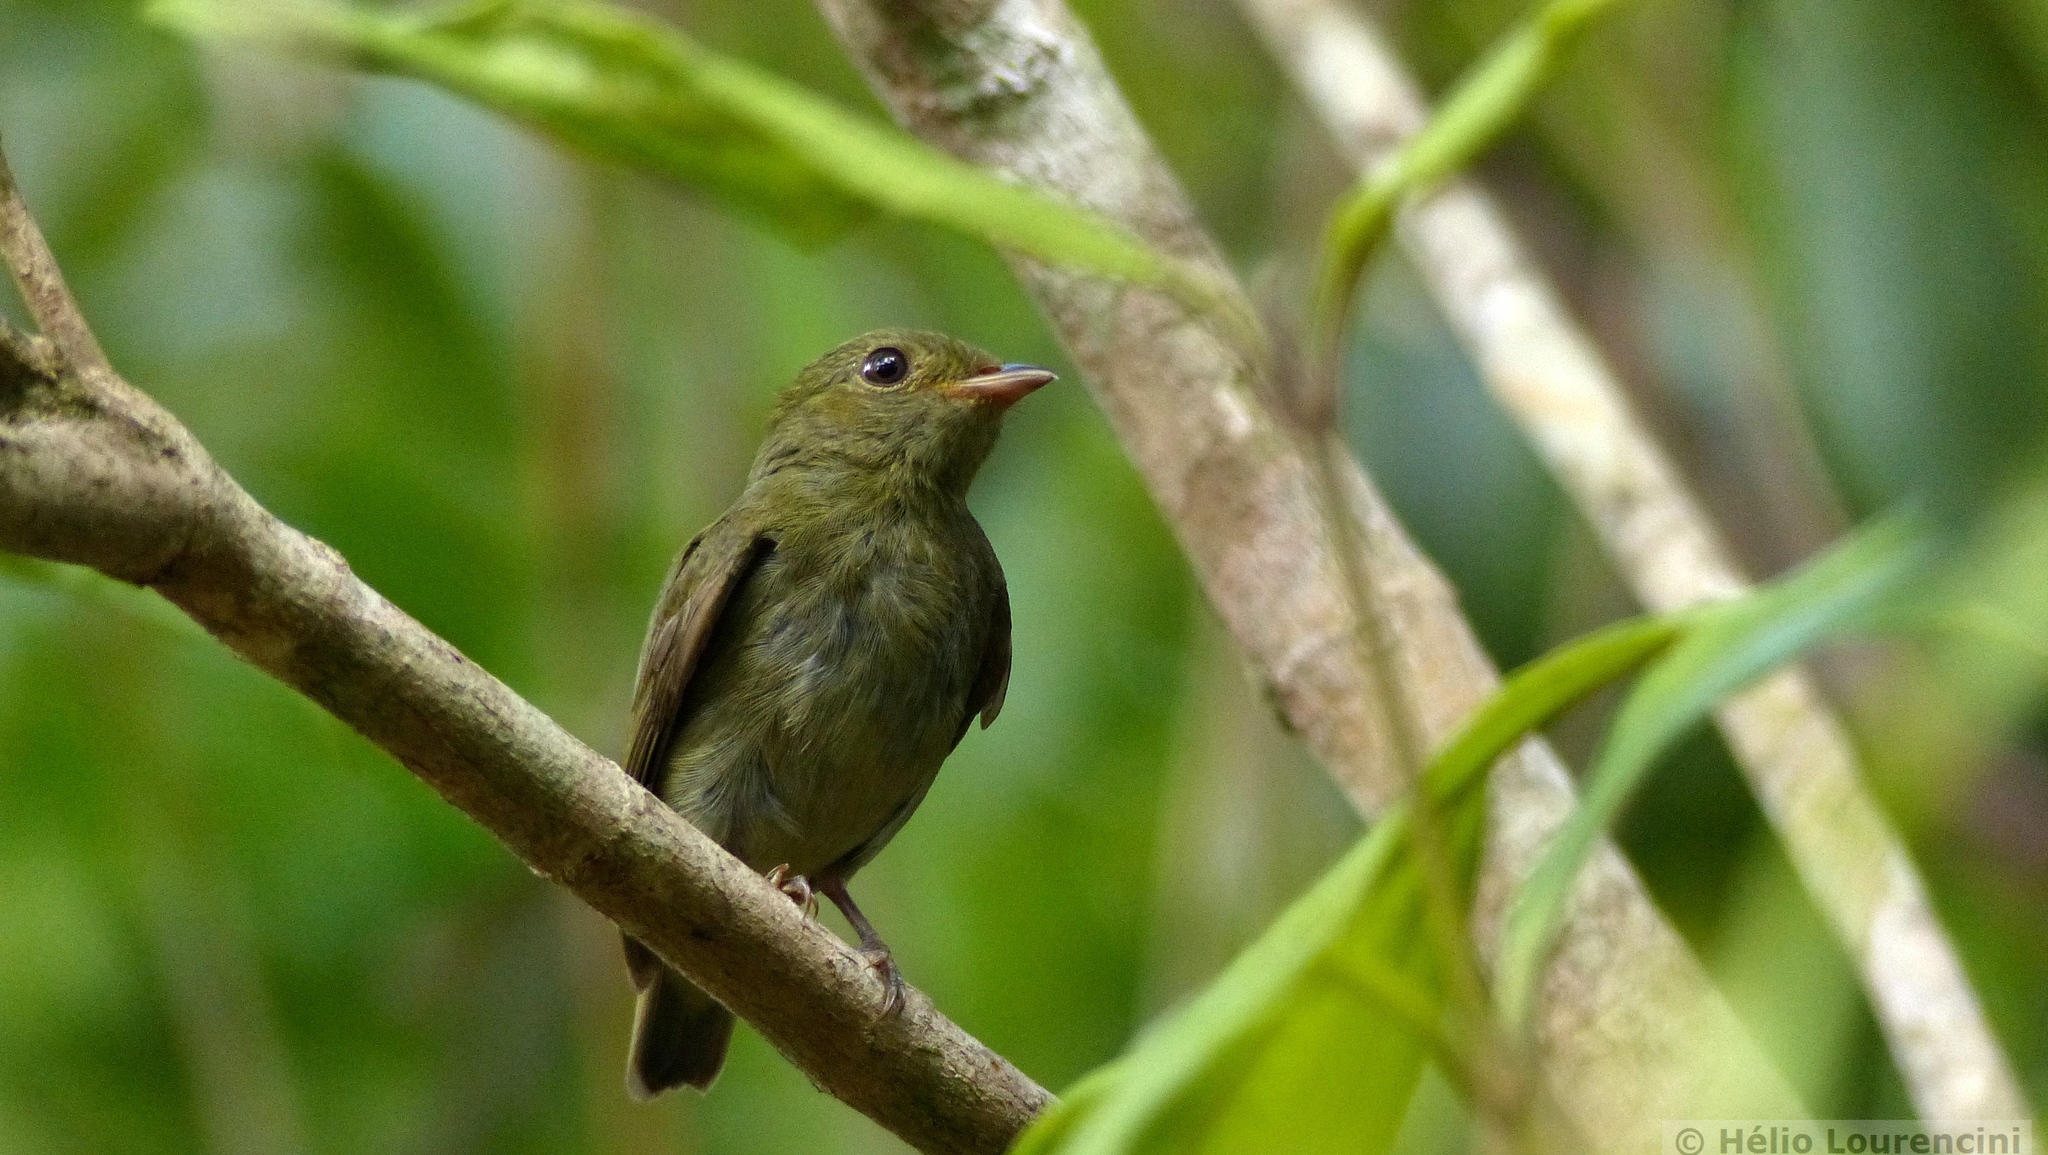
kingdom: Animalia
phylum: Chordata
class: Aves
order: Passeriformes
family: Pipridae
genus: Pipra
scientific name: Pipra rubrocapilla
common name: Red-headed manakin
